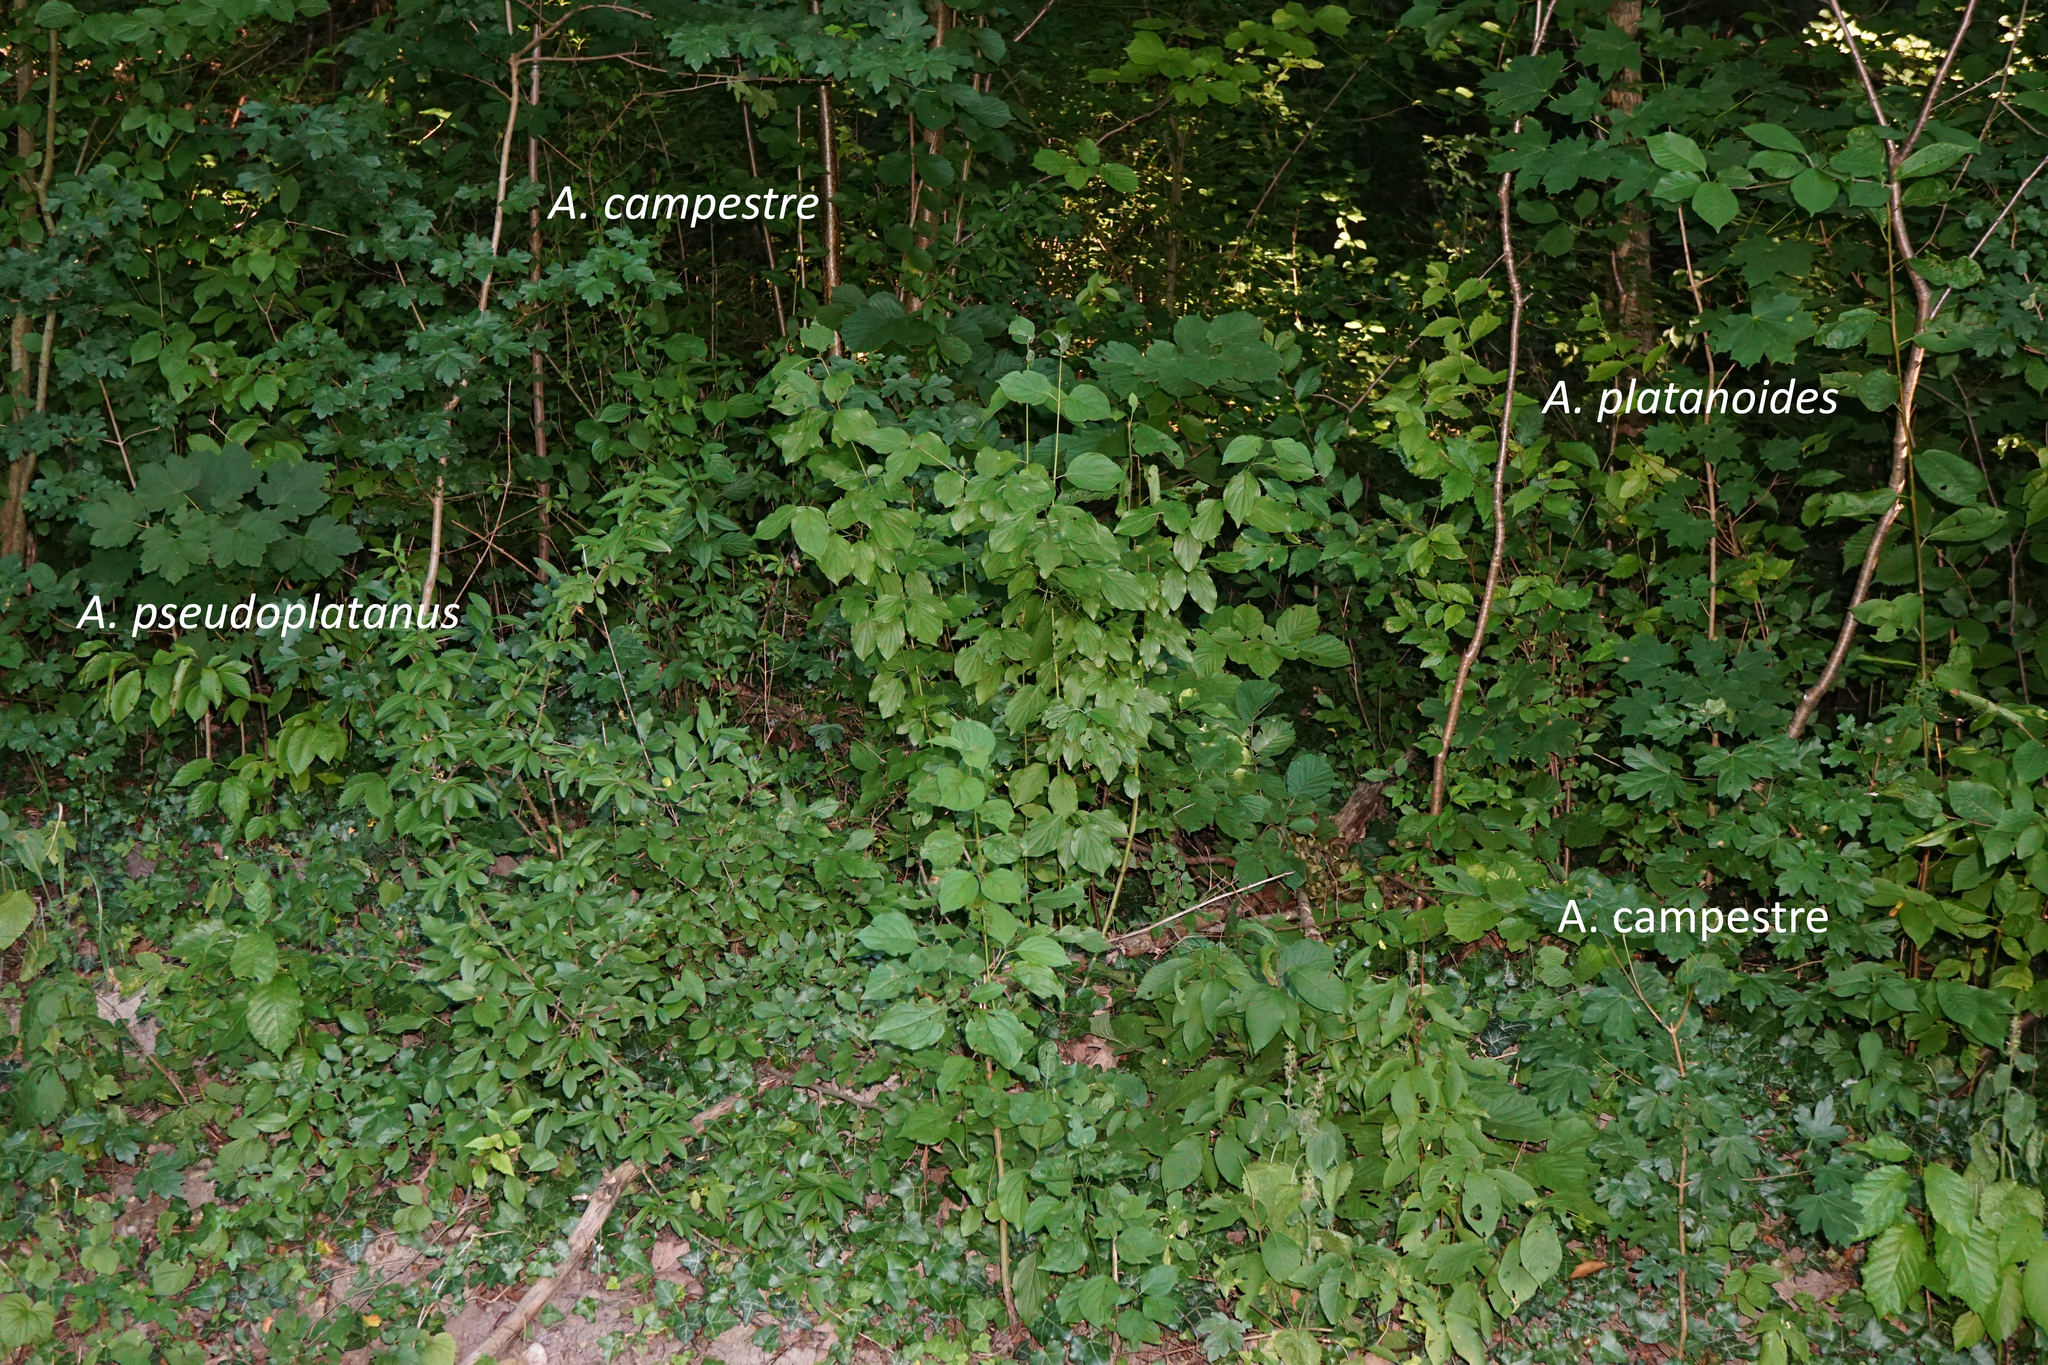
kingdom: Plantae
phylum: Tracheophyta
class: Magnoliopsida
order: Sapindales
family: Sapindaceae
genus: Acer
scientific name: Acer campestre
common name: Field maple
